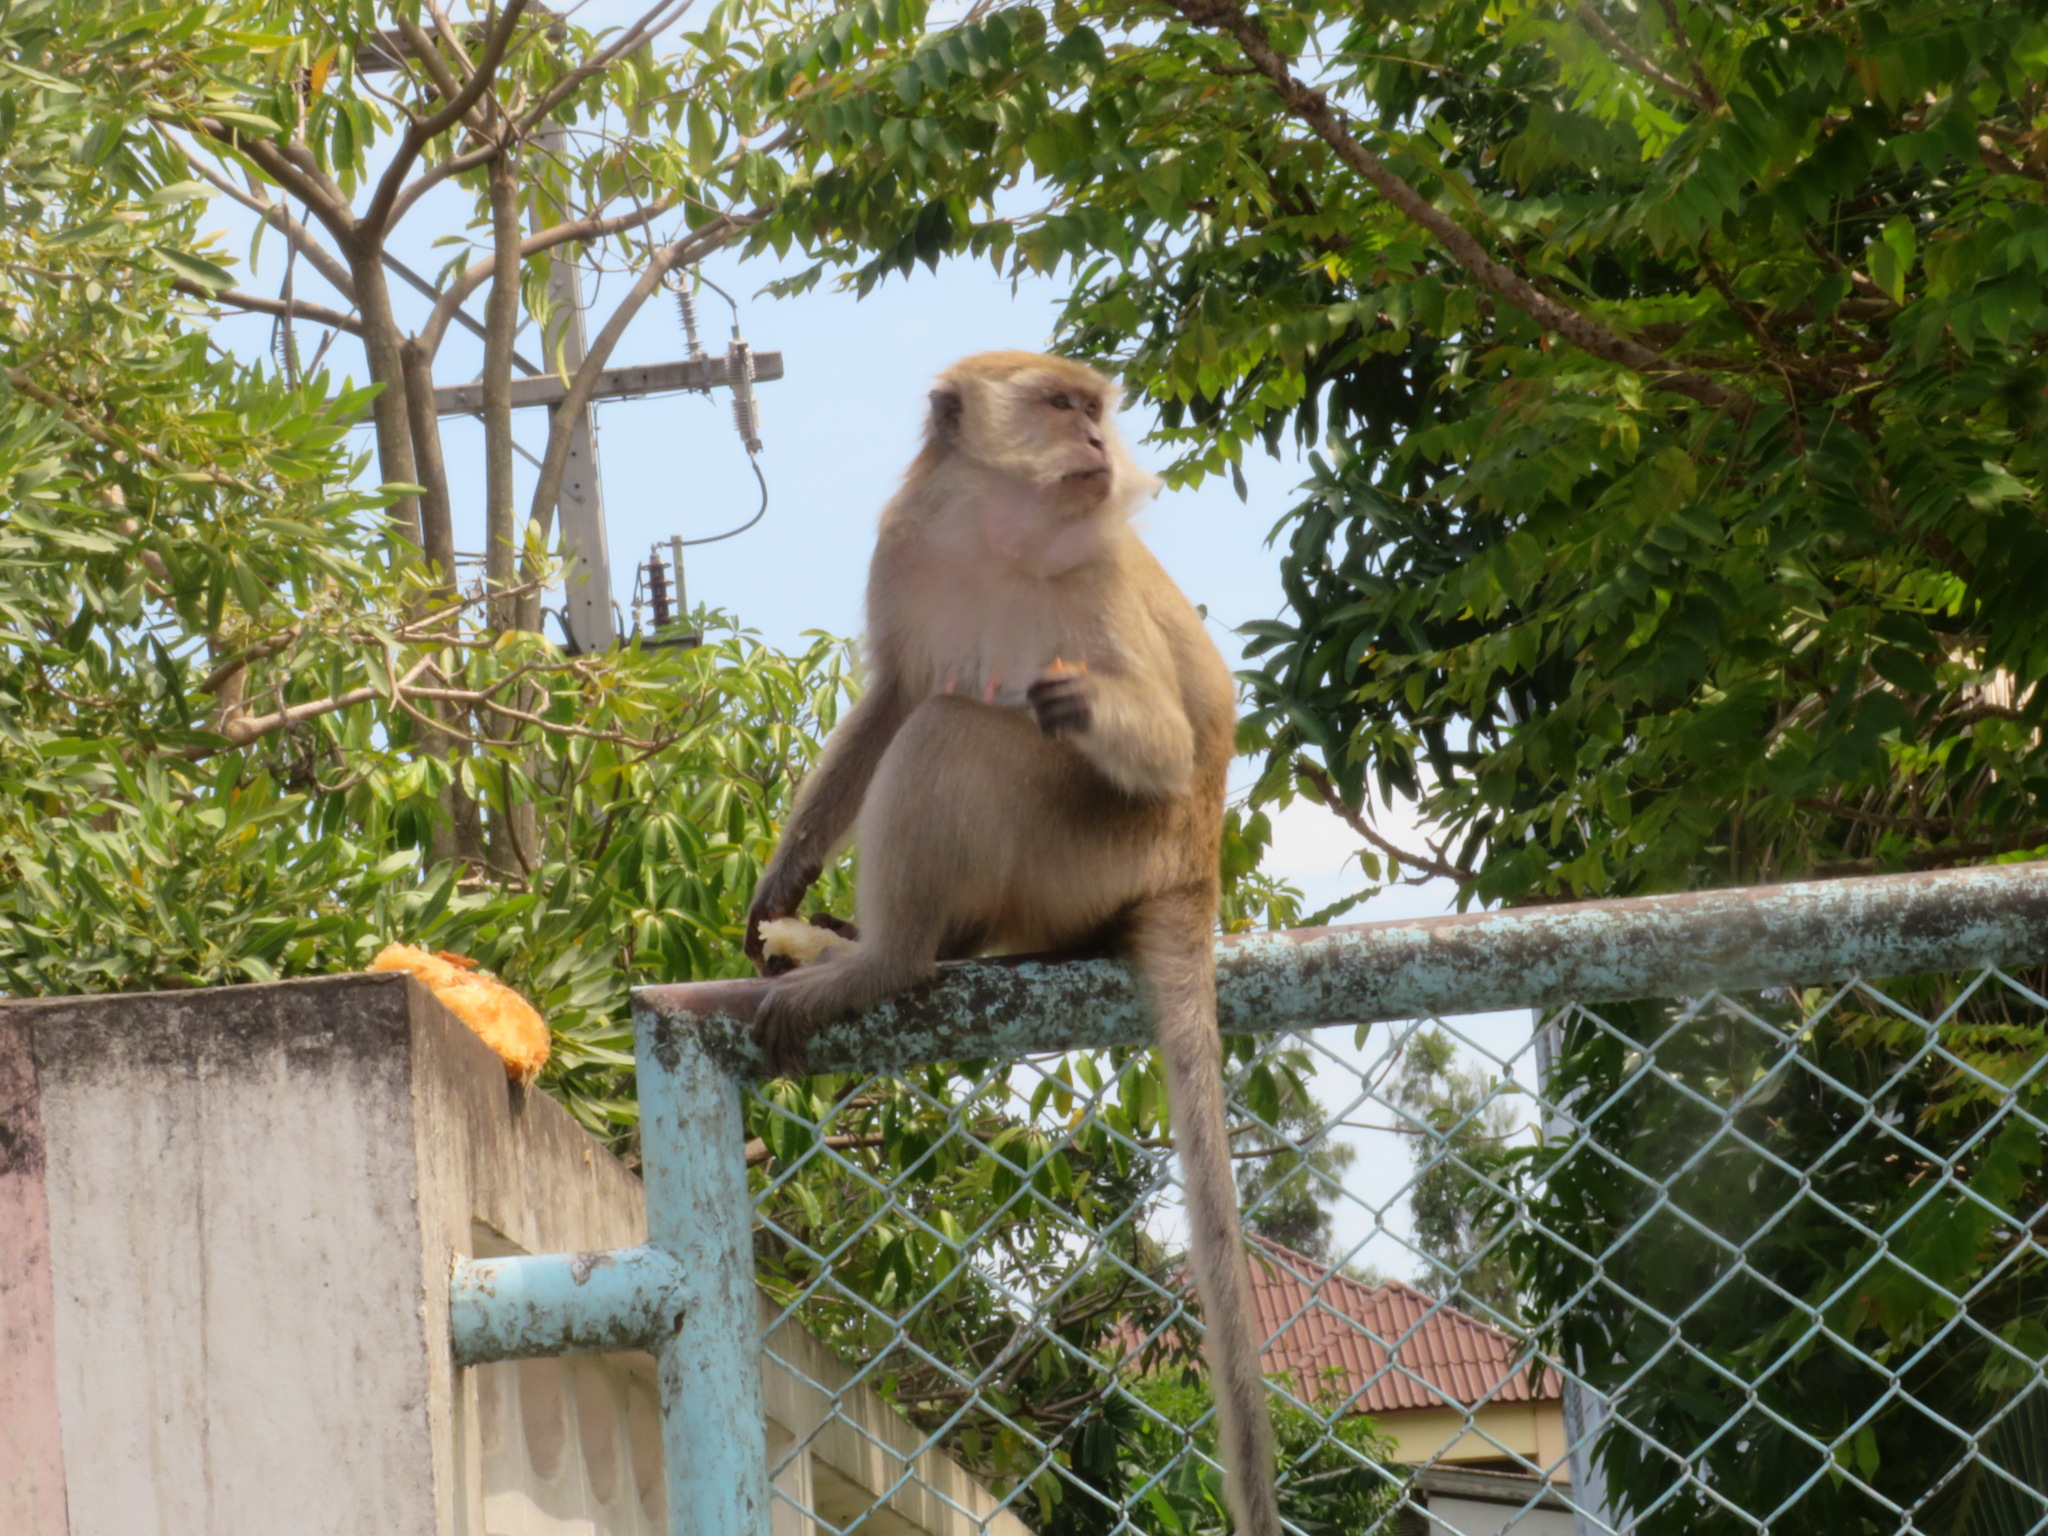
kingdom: Animalia
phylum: Chordata
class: Mammalia
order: Primates
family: Cercopithecidae
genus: Macaca
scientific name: Macaca fascicularis
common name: Crab-eating macaque
